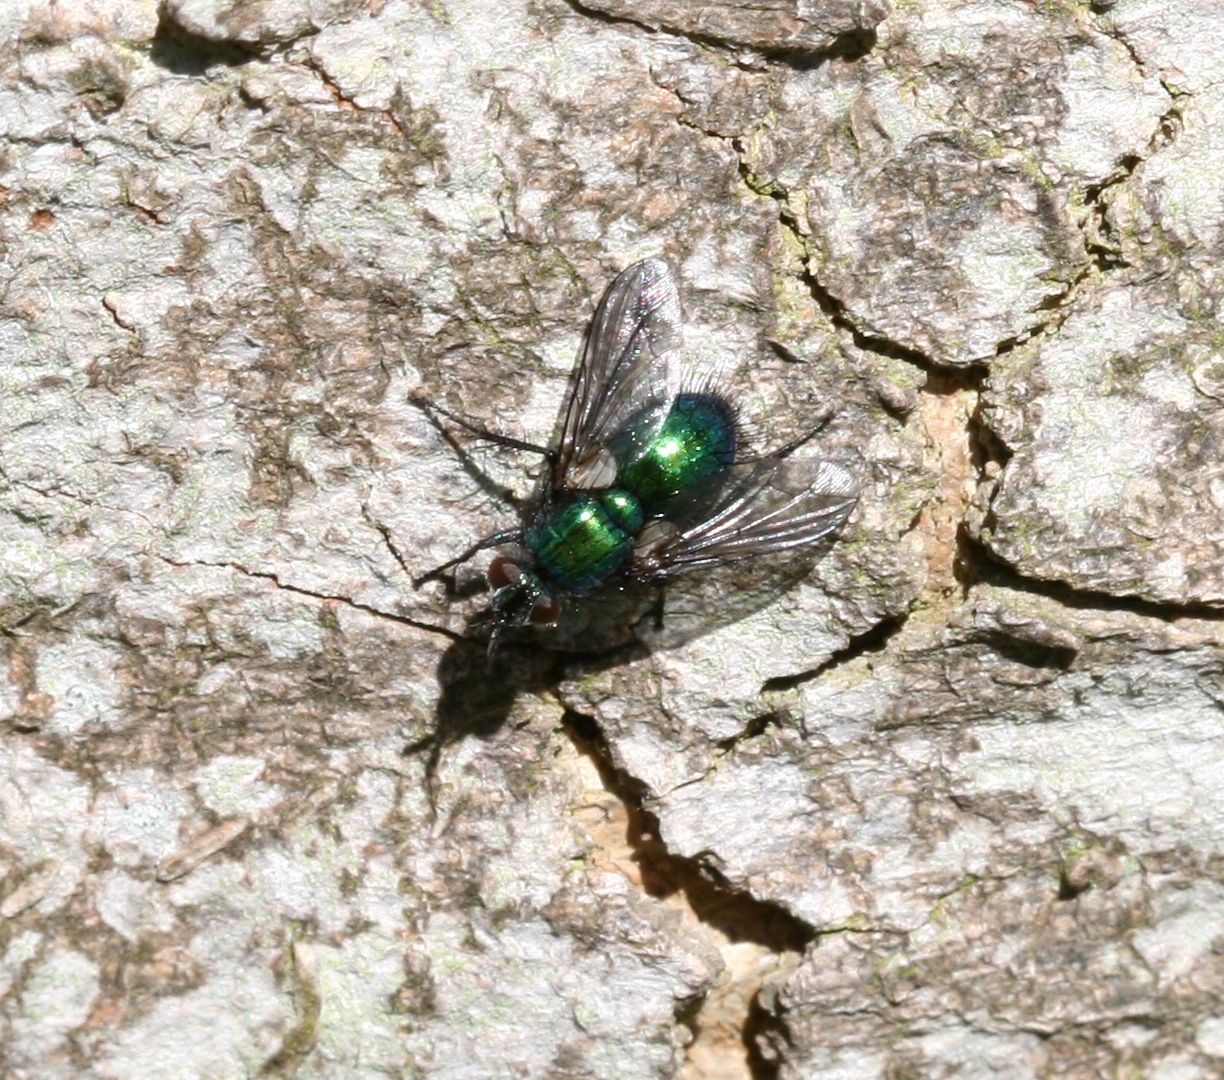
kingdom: Animalia
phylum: Arthropoda
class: Insecta
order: Diptera
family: Tachinidae
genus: Gymnocheta
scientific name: Gymnocheta viridis
